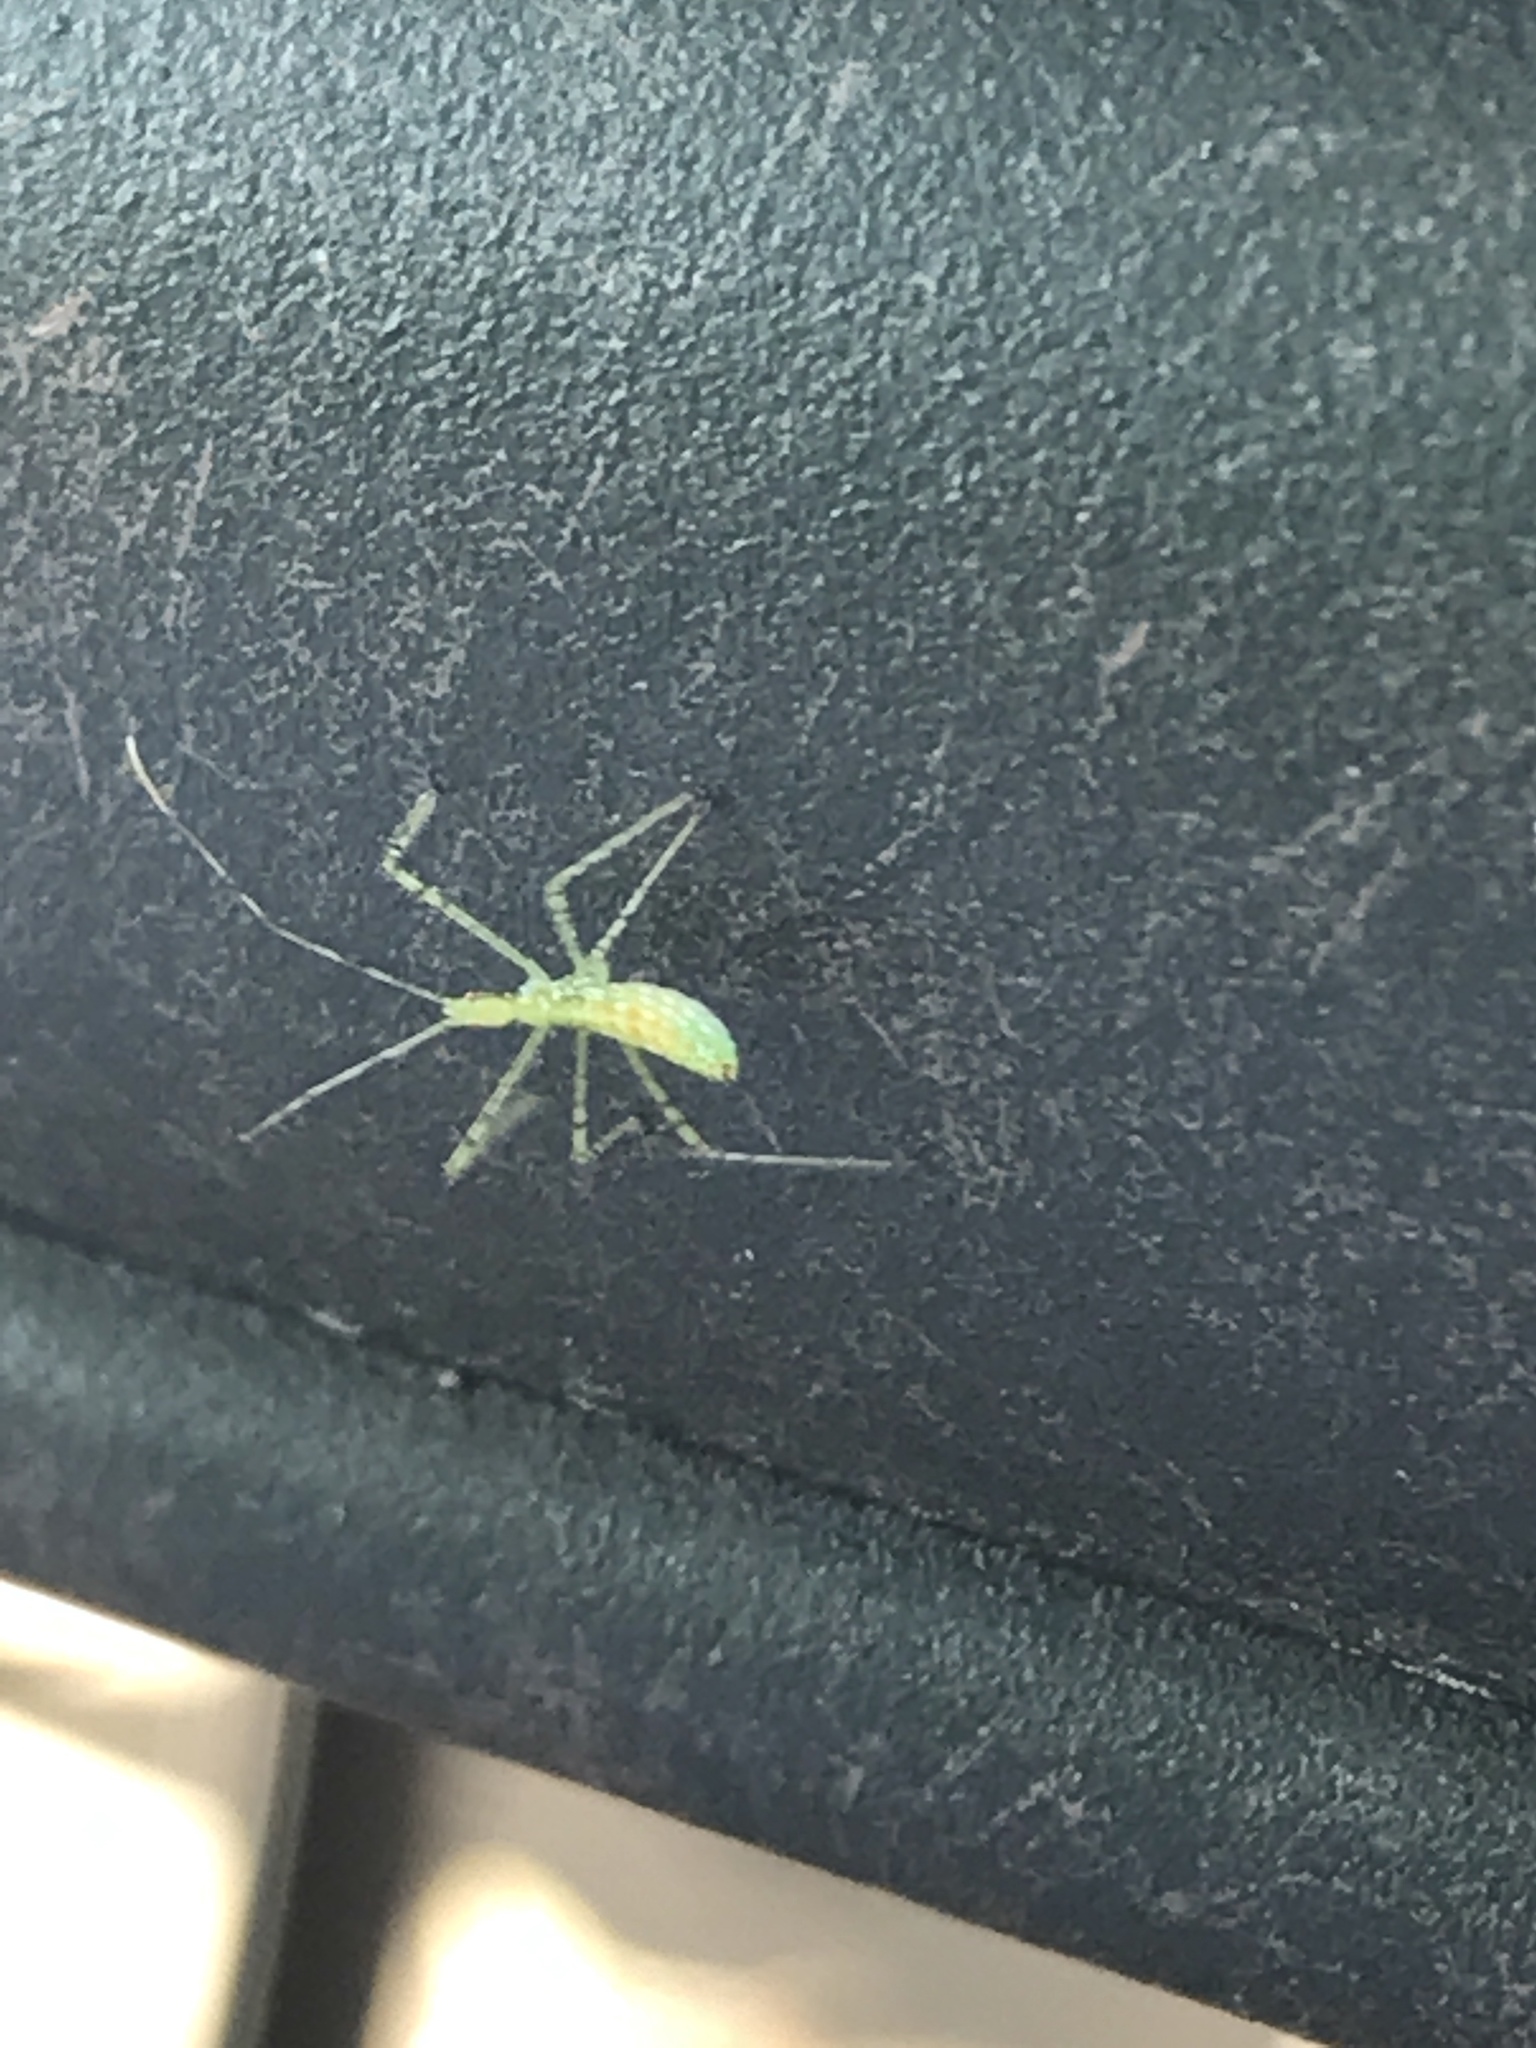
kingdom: Animalia
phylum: Arthropoda
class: Insecta
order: Hemiptera
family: Reduviidae
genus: Zelus
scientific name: Zelus luridus
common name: Pale green assassin bug
